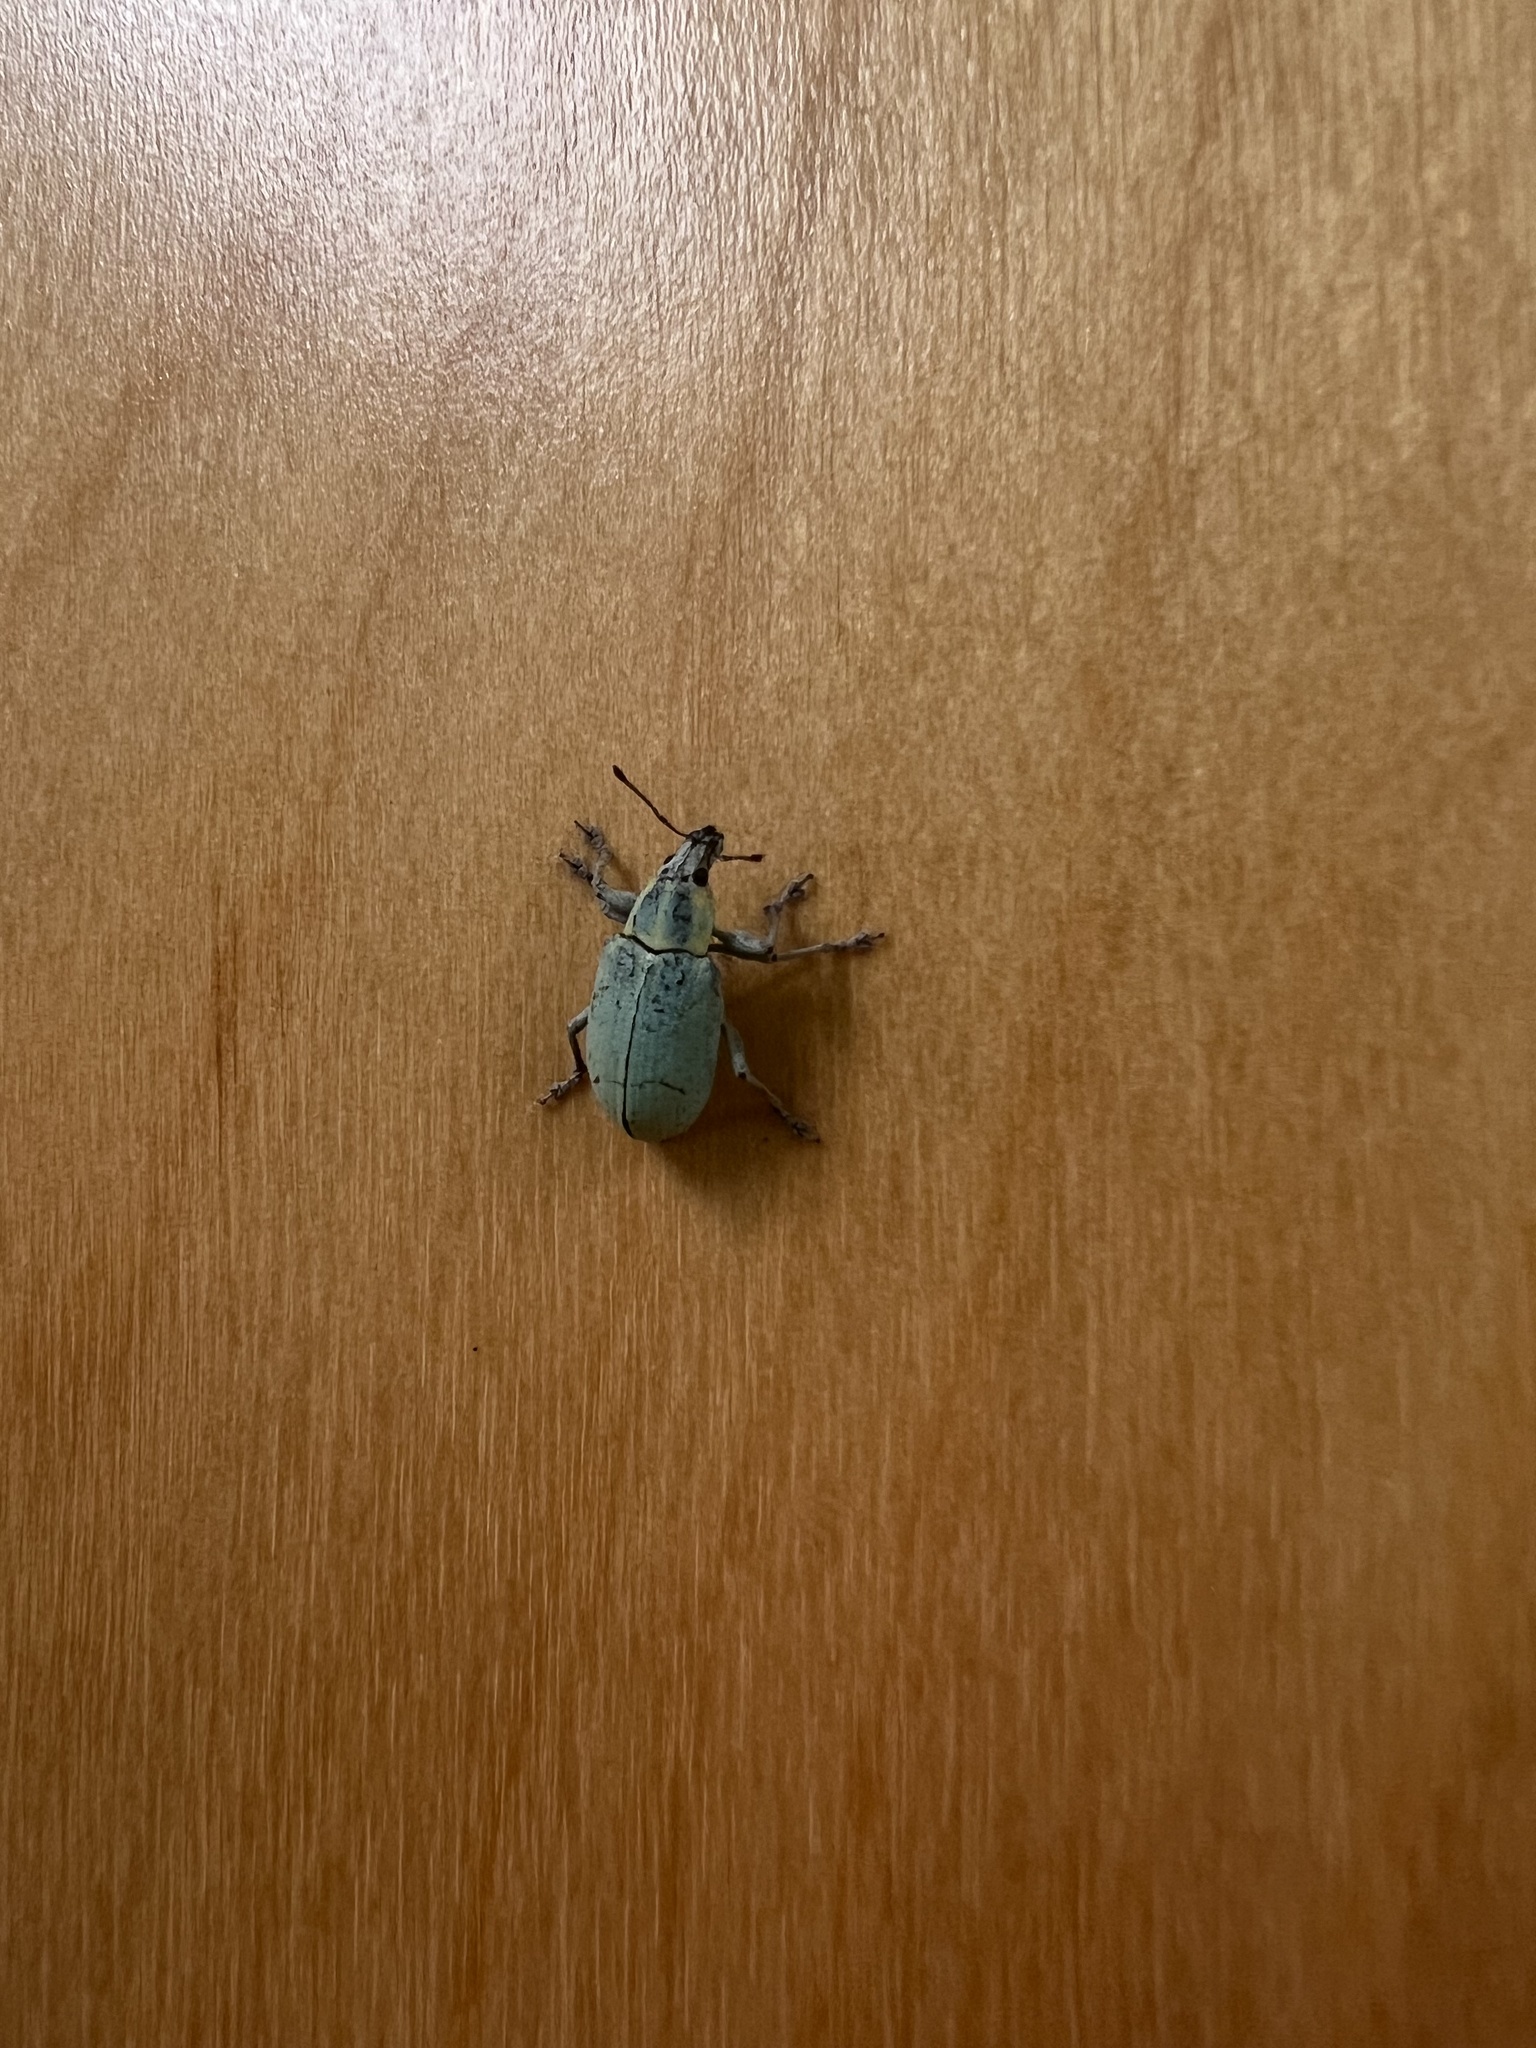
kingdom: Animalia
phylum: Arthropoda
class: Insecta
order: Coleoptera
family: Curculionidae
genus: Pachnaeus
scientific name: Pachnaeus litus
